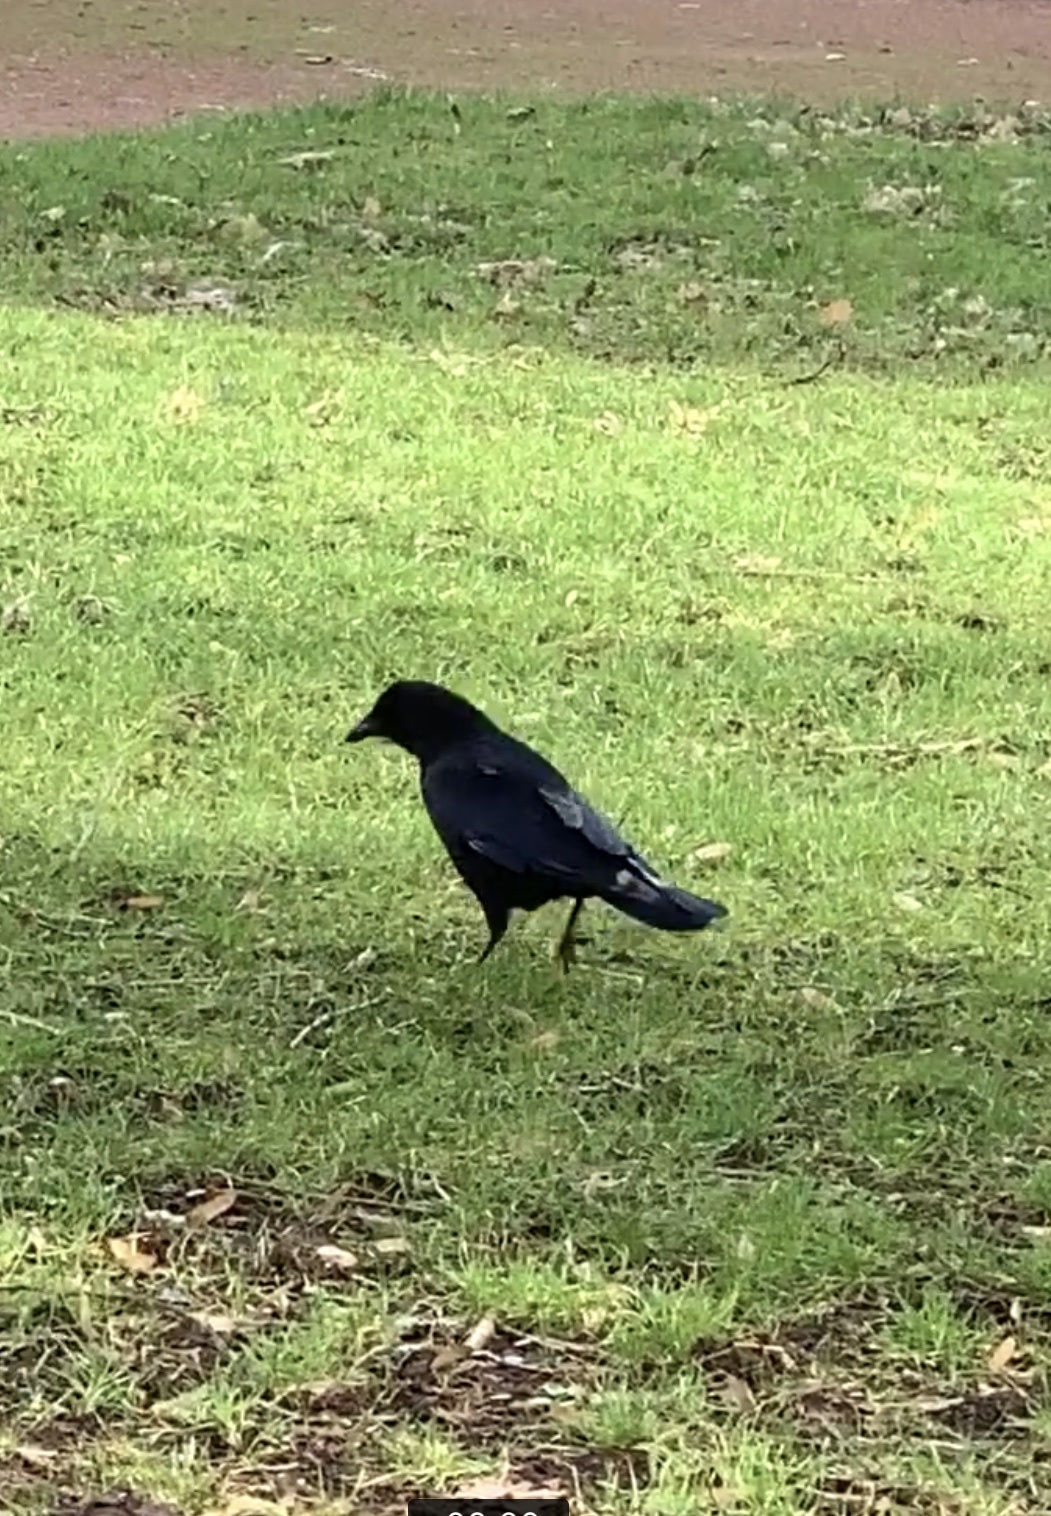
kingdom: Animalia
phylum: Chordata
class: Aves
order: Passeriformes
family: Corvidae
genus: Corvus
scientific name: Corvus corone
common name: Carrion crow
